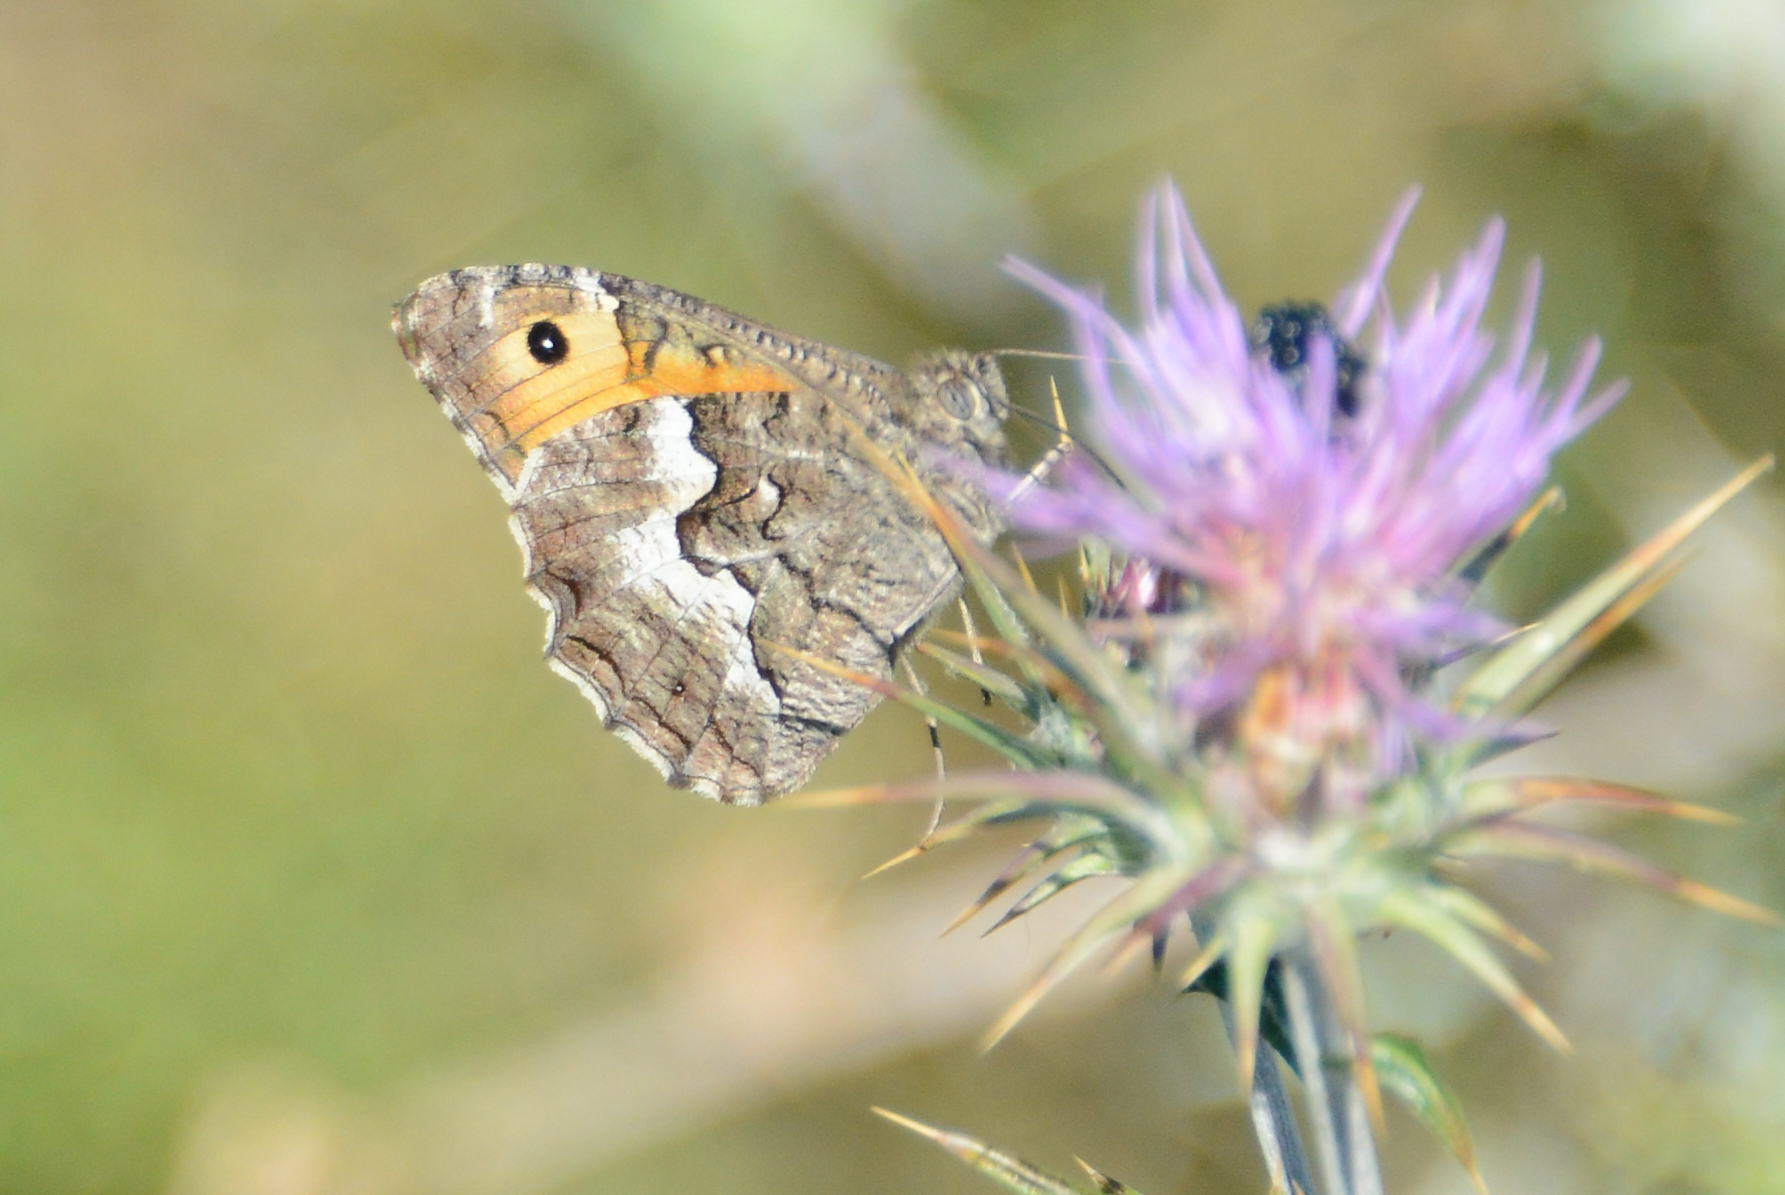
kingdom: Animalia
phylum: Arthropoda
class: Insecta
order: Lepidoptera
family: Nymphalidae
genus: Hipparchia
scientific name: Hipparchia cretica
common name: Cretan grayling
